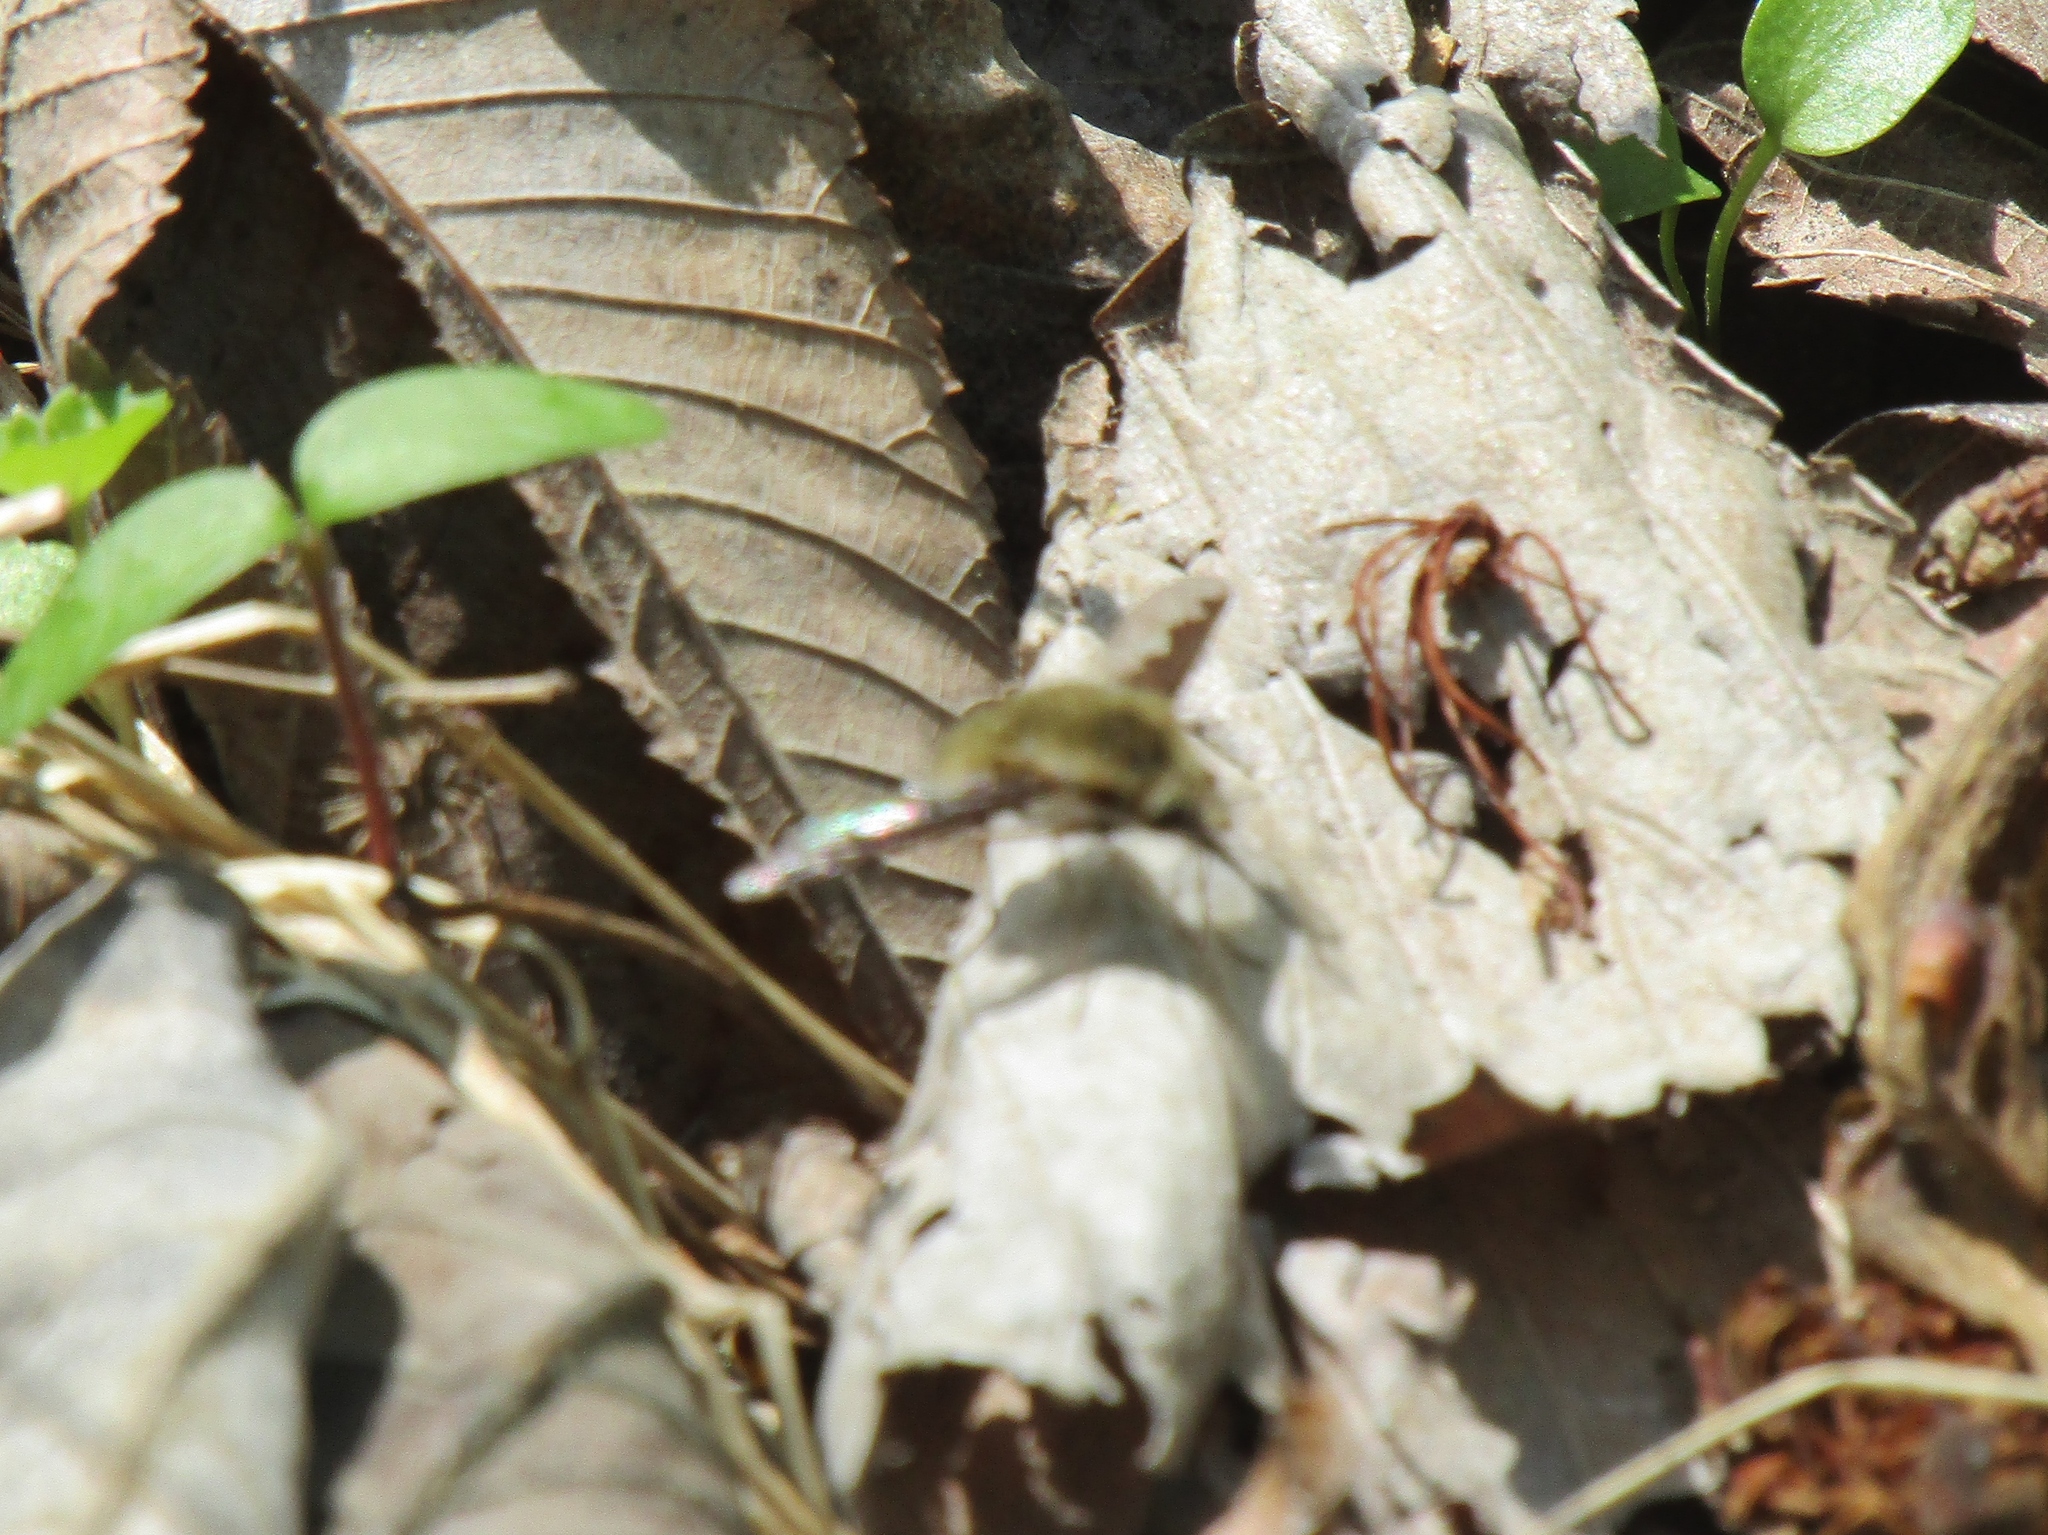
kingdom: Animalia
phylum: Arthropoda
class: Insecta
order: Diptera
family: Bombyliidae
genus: Bombylius
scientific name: Bombylius major
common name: Bee fly
